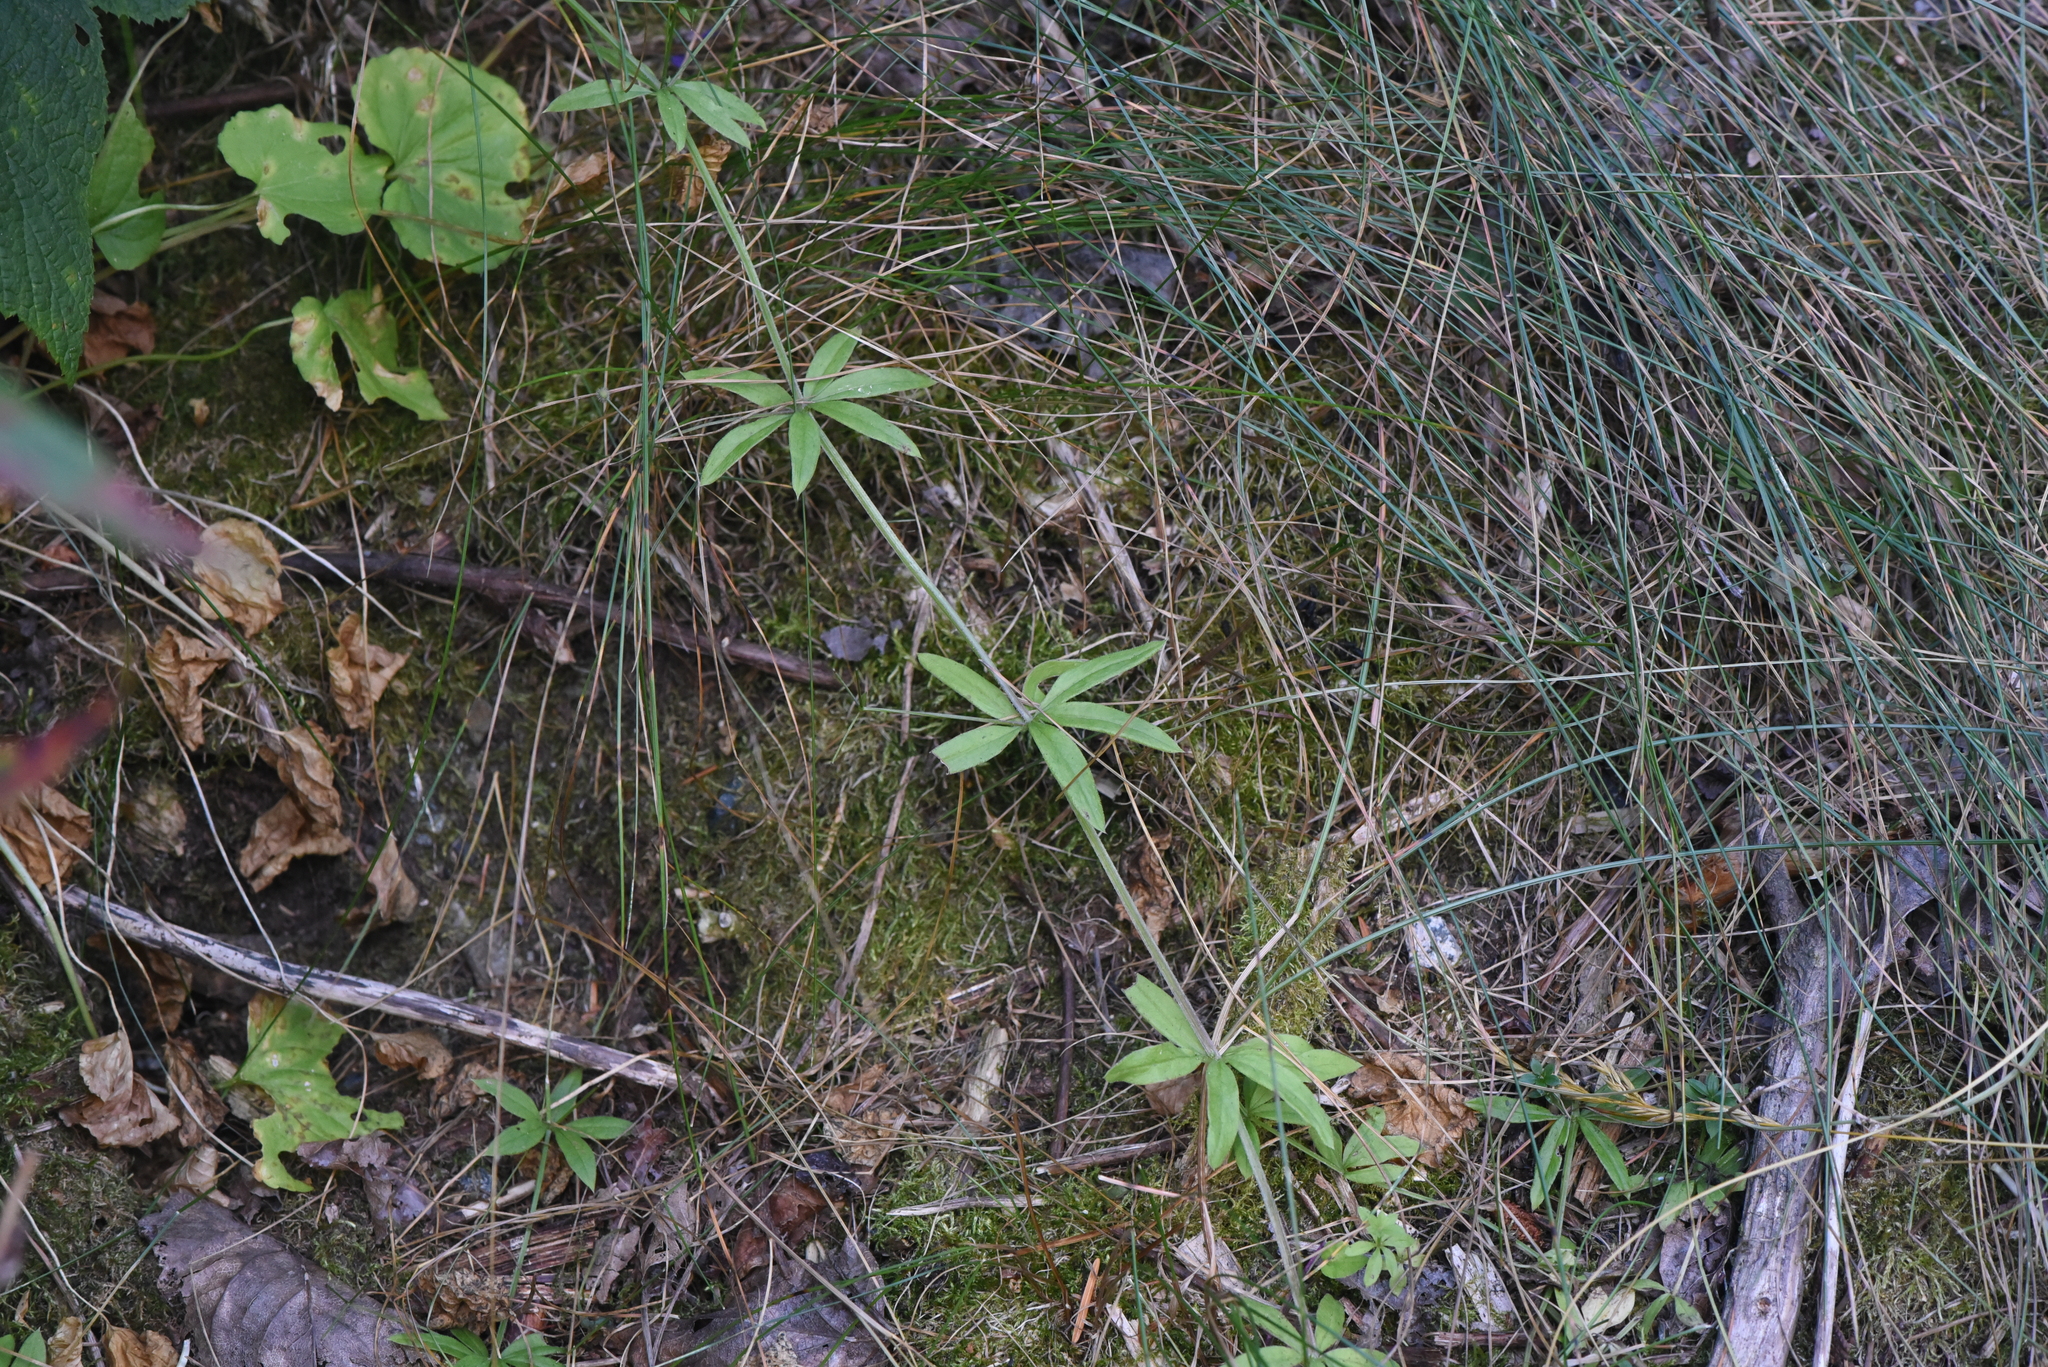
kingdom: Plantae
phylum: Tracheophyta
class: Magnoliopsida
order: Gentianales
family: Rubiaceae
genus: Galium
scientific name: Galium triflorum
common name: Fragrant bedstraw
